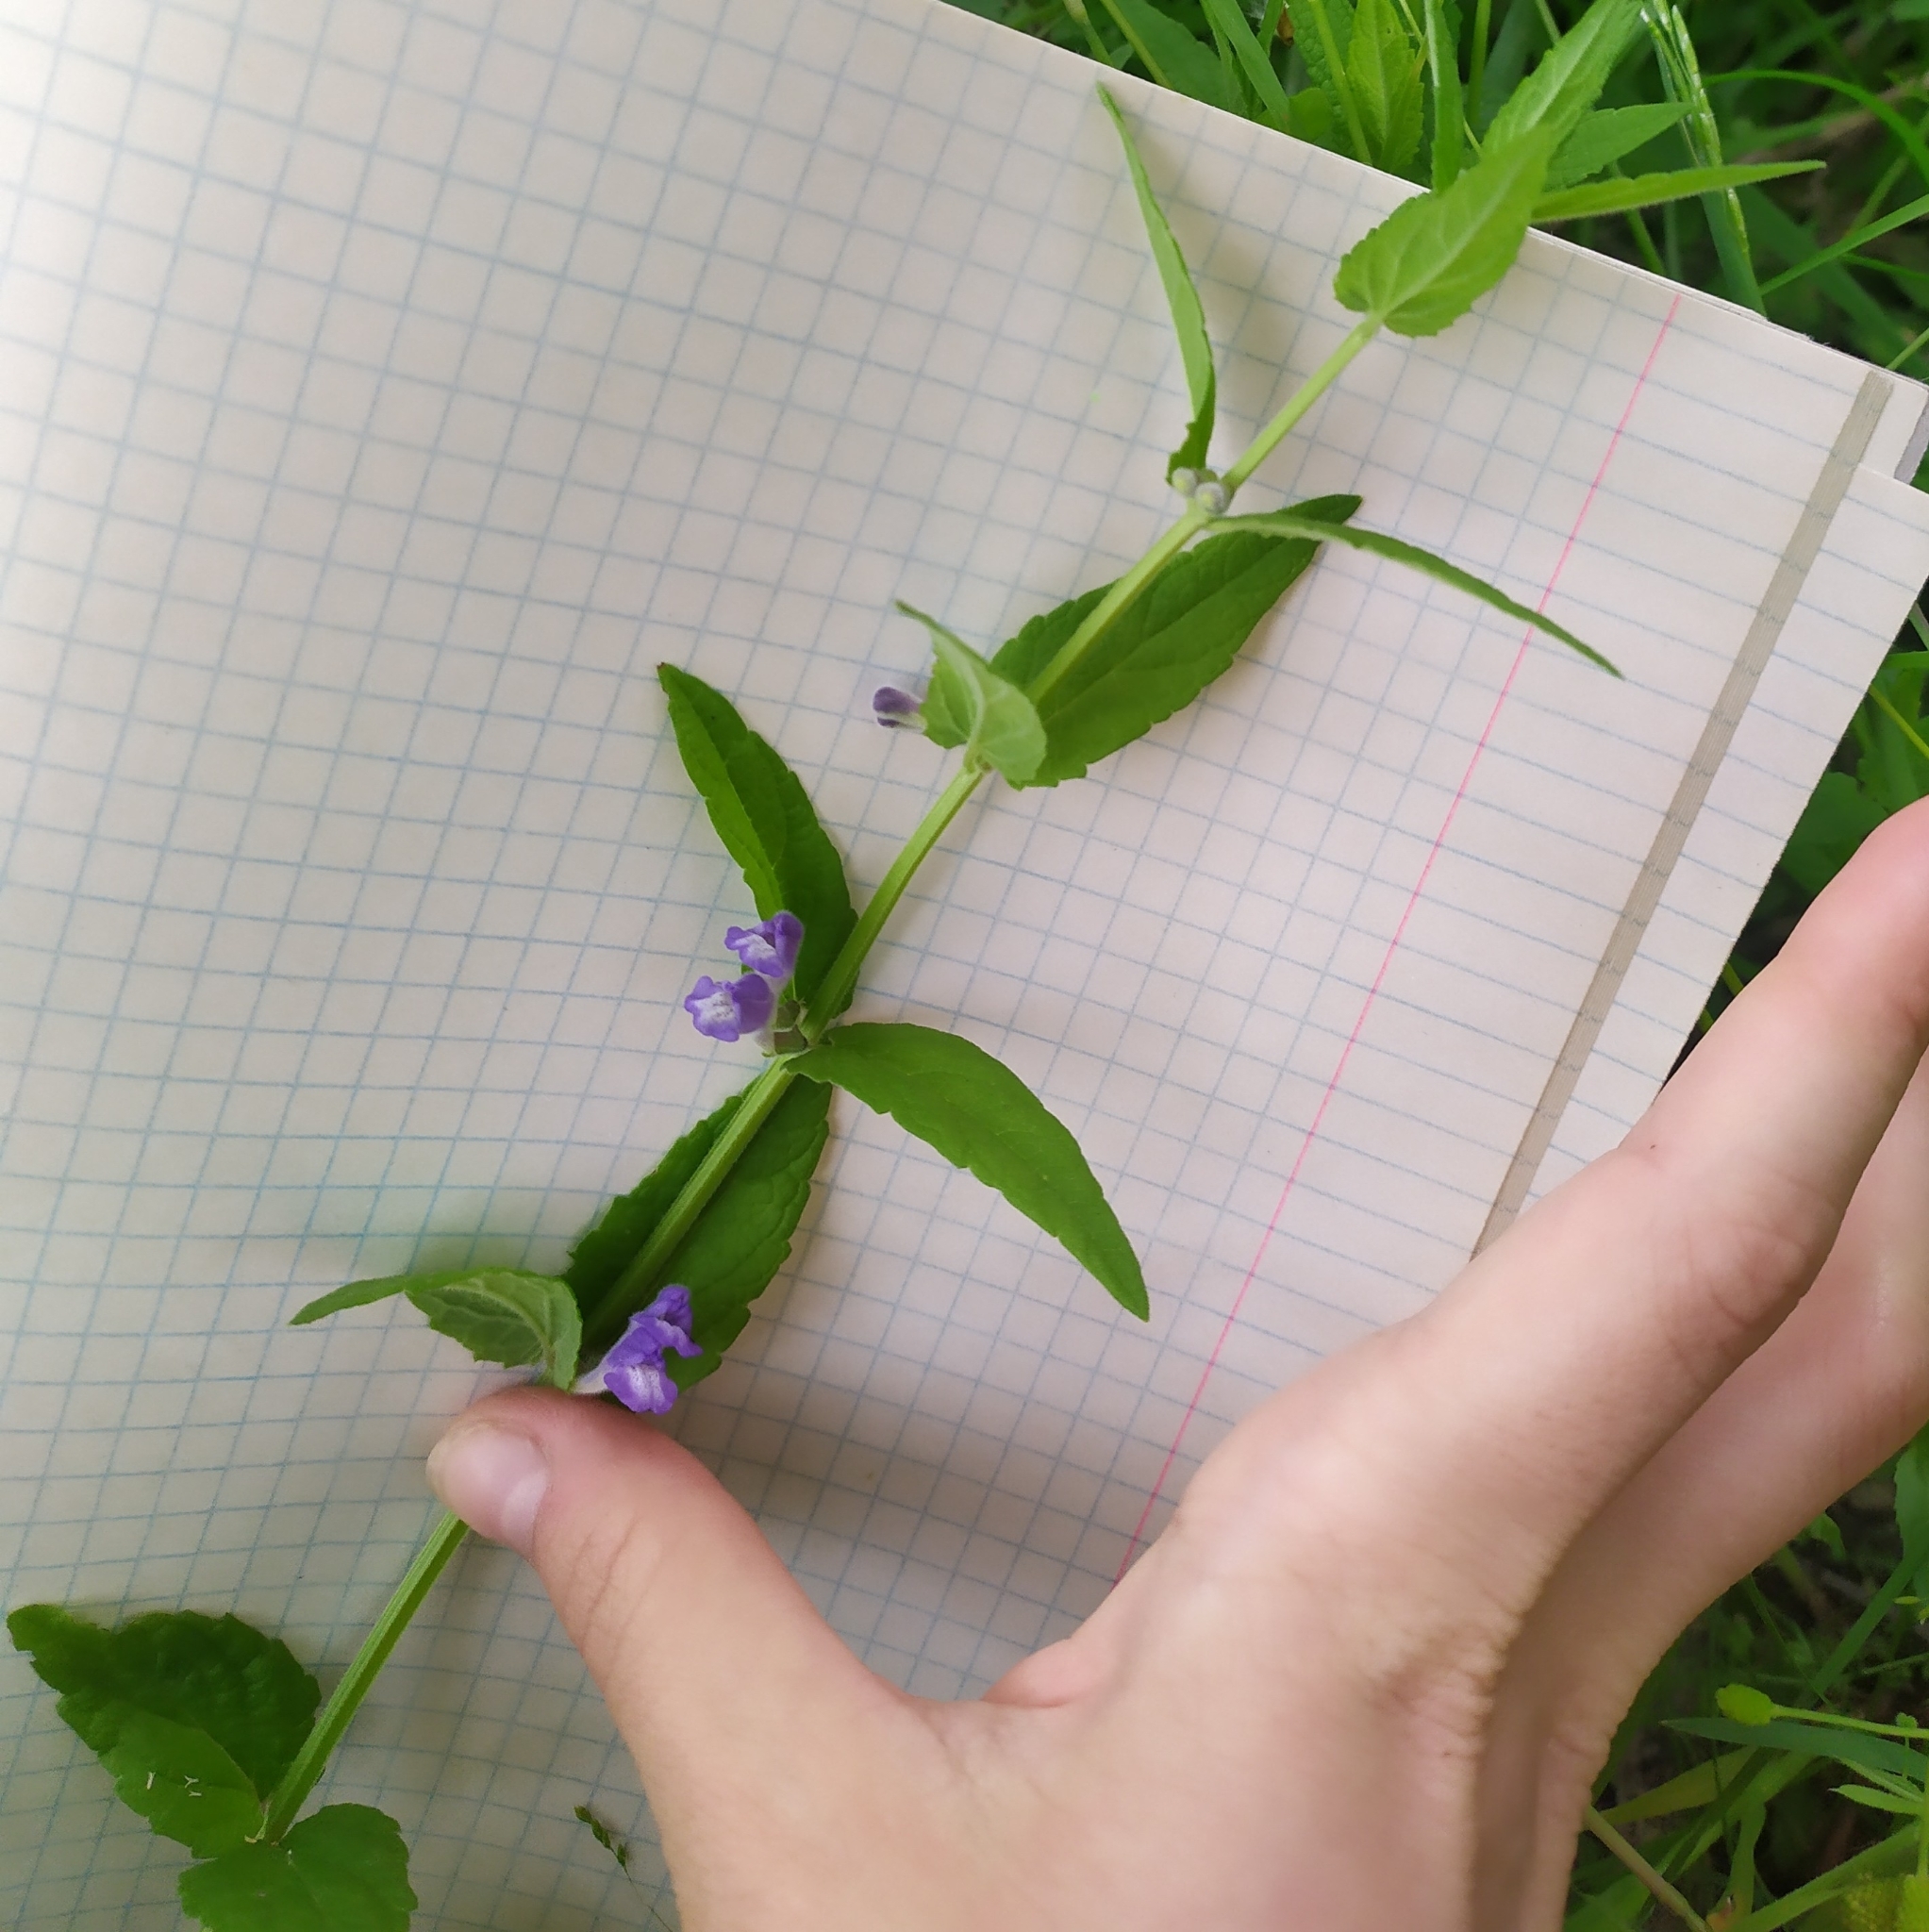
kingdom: Plantae
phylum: Tracheophyta
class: Magnoliopsida
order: Lamiales
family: Lamiaceae
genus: Scutellaria
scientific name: Scutellaria galericulata
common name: Skullcap
